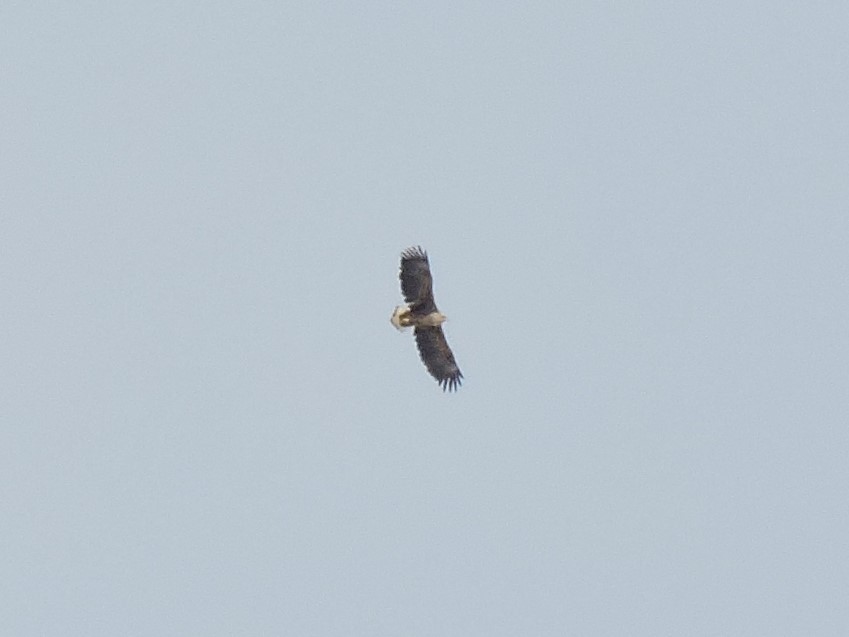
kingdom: Animalia
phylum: Chordata
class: Aves
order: Accipitriformes
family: Accipitridae
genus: Haliaeetus
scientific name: Haliaeetus albicilla
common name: White-tailed eagle
